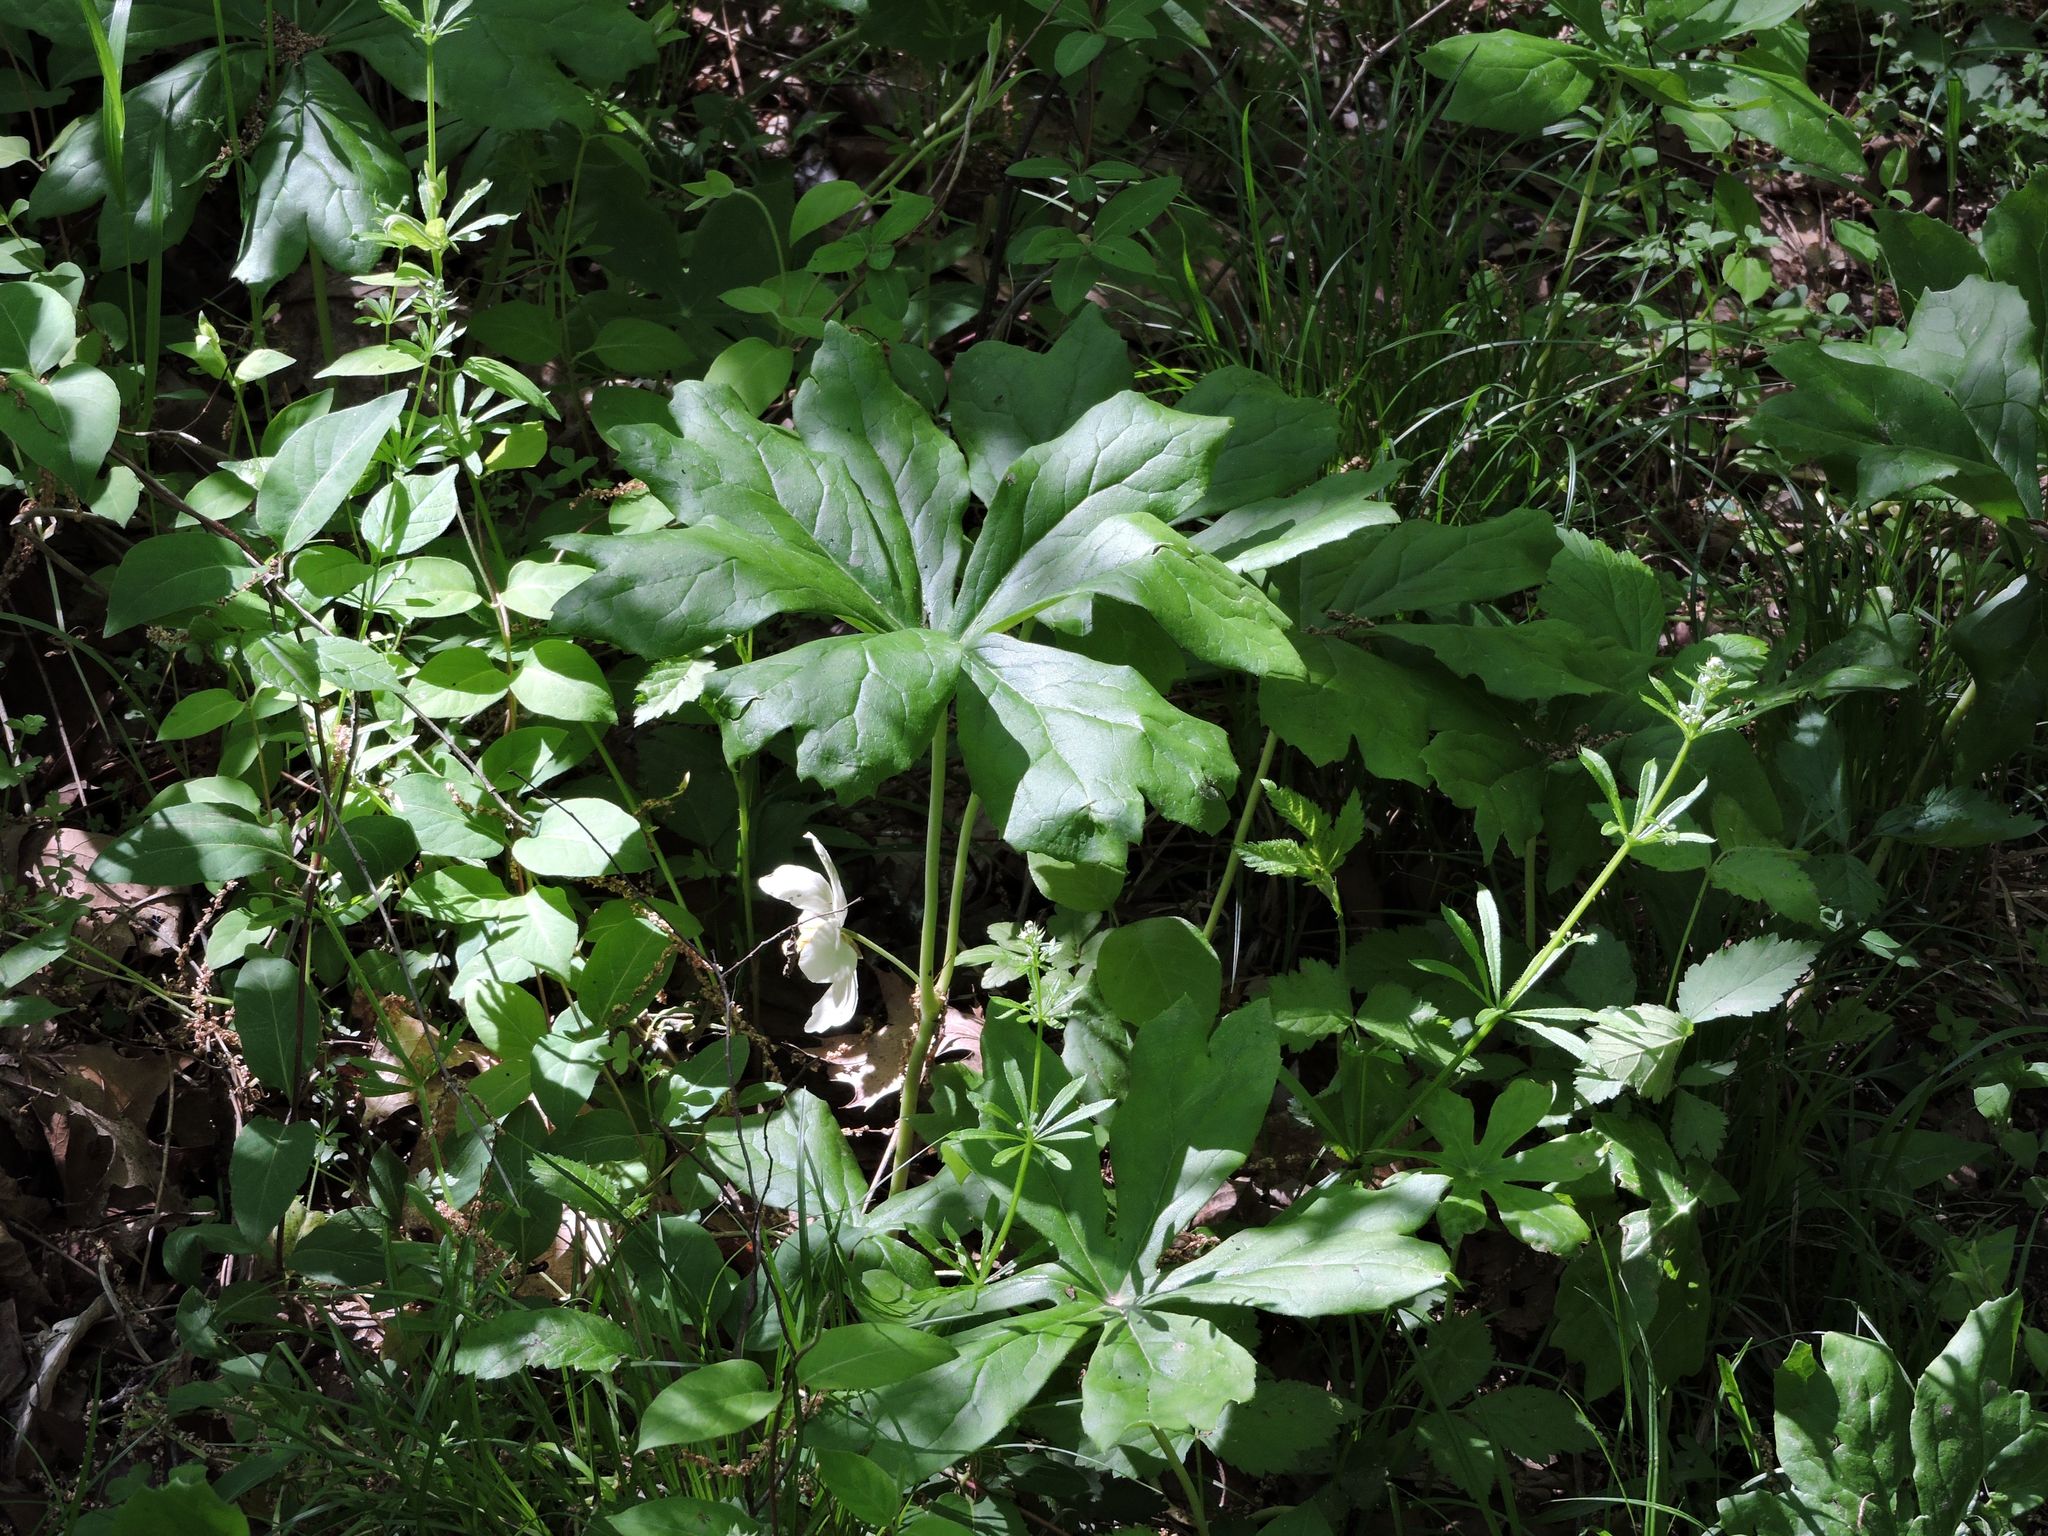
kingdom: Plantae
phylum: Tracheophyta
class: Magnoliopsida
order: Ranunculales
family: Berberidaceae
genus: Podophyllum
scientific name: Podophyllum peltatum
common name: Wild mandrake
